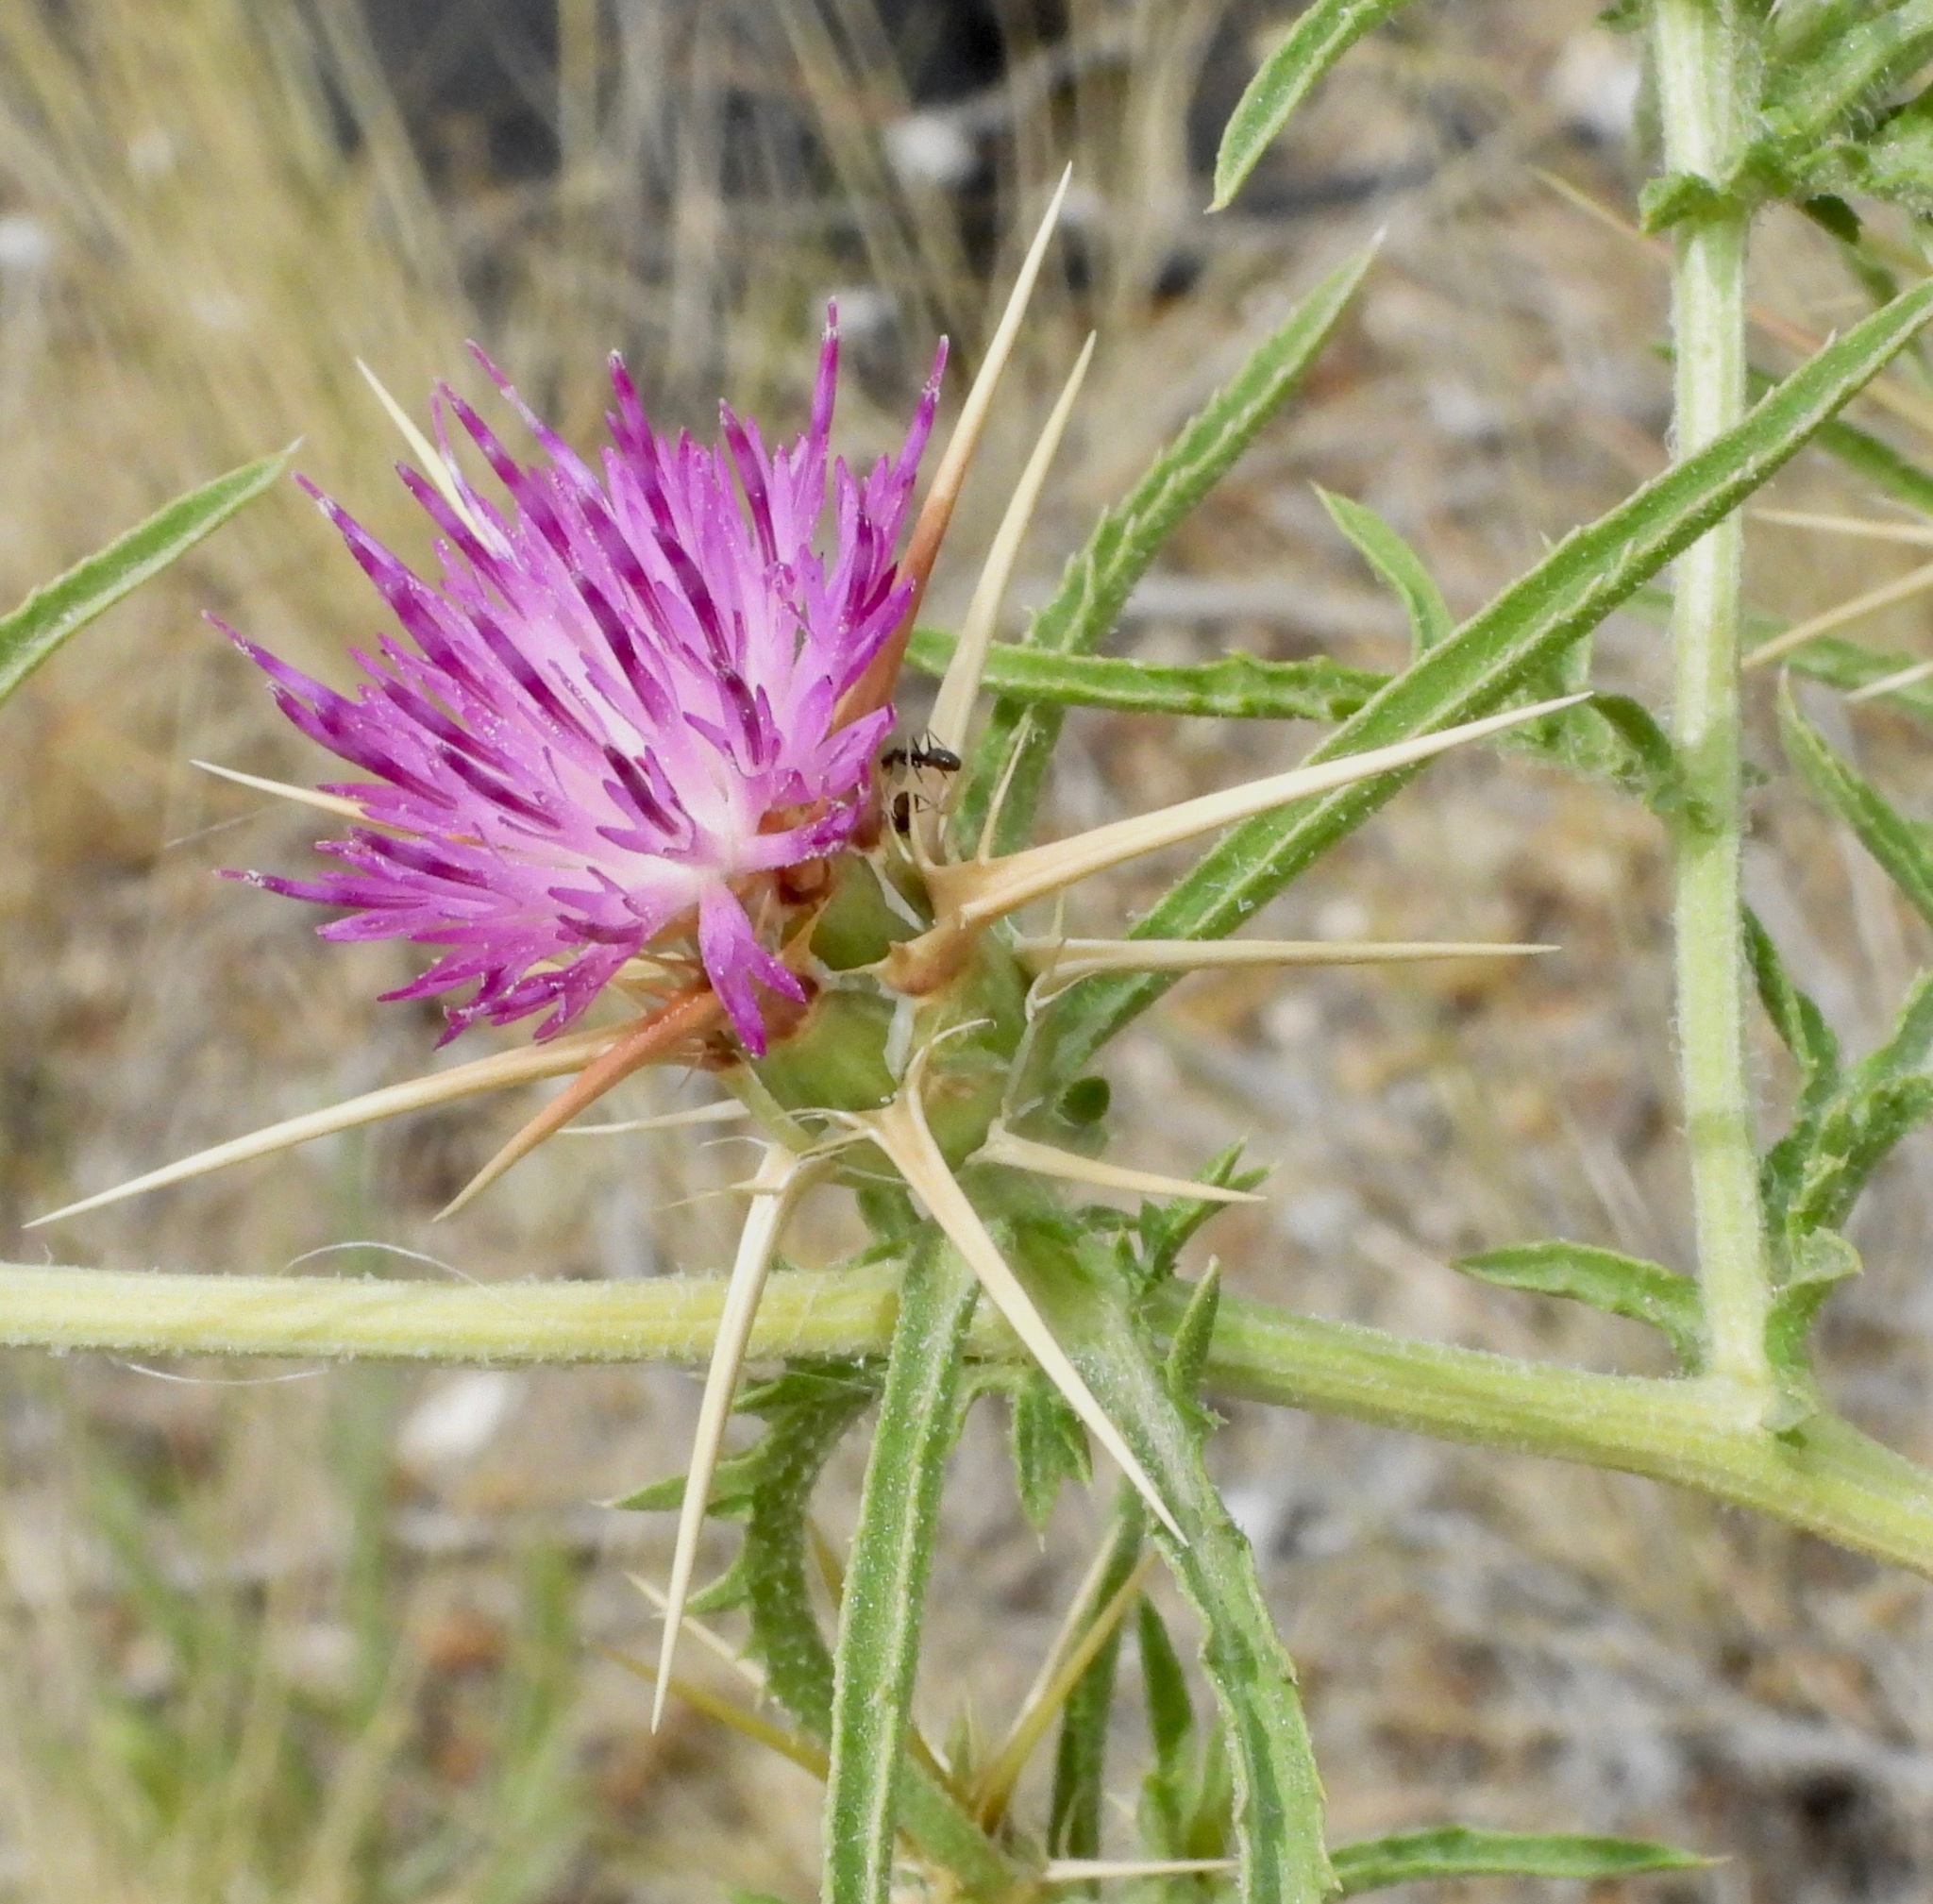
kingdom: Plantae
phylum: Tracheophyta
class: Magnoliopsida
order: Asterales
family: Asteraceae
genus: Centaurea
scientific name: Centaurea calcitrapa
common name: Red star-thistle
